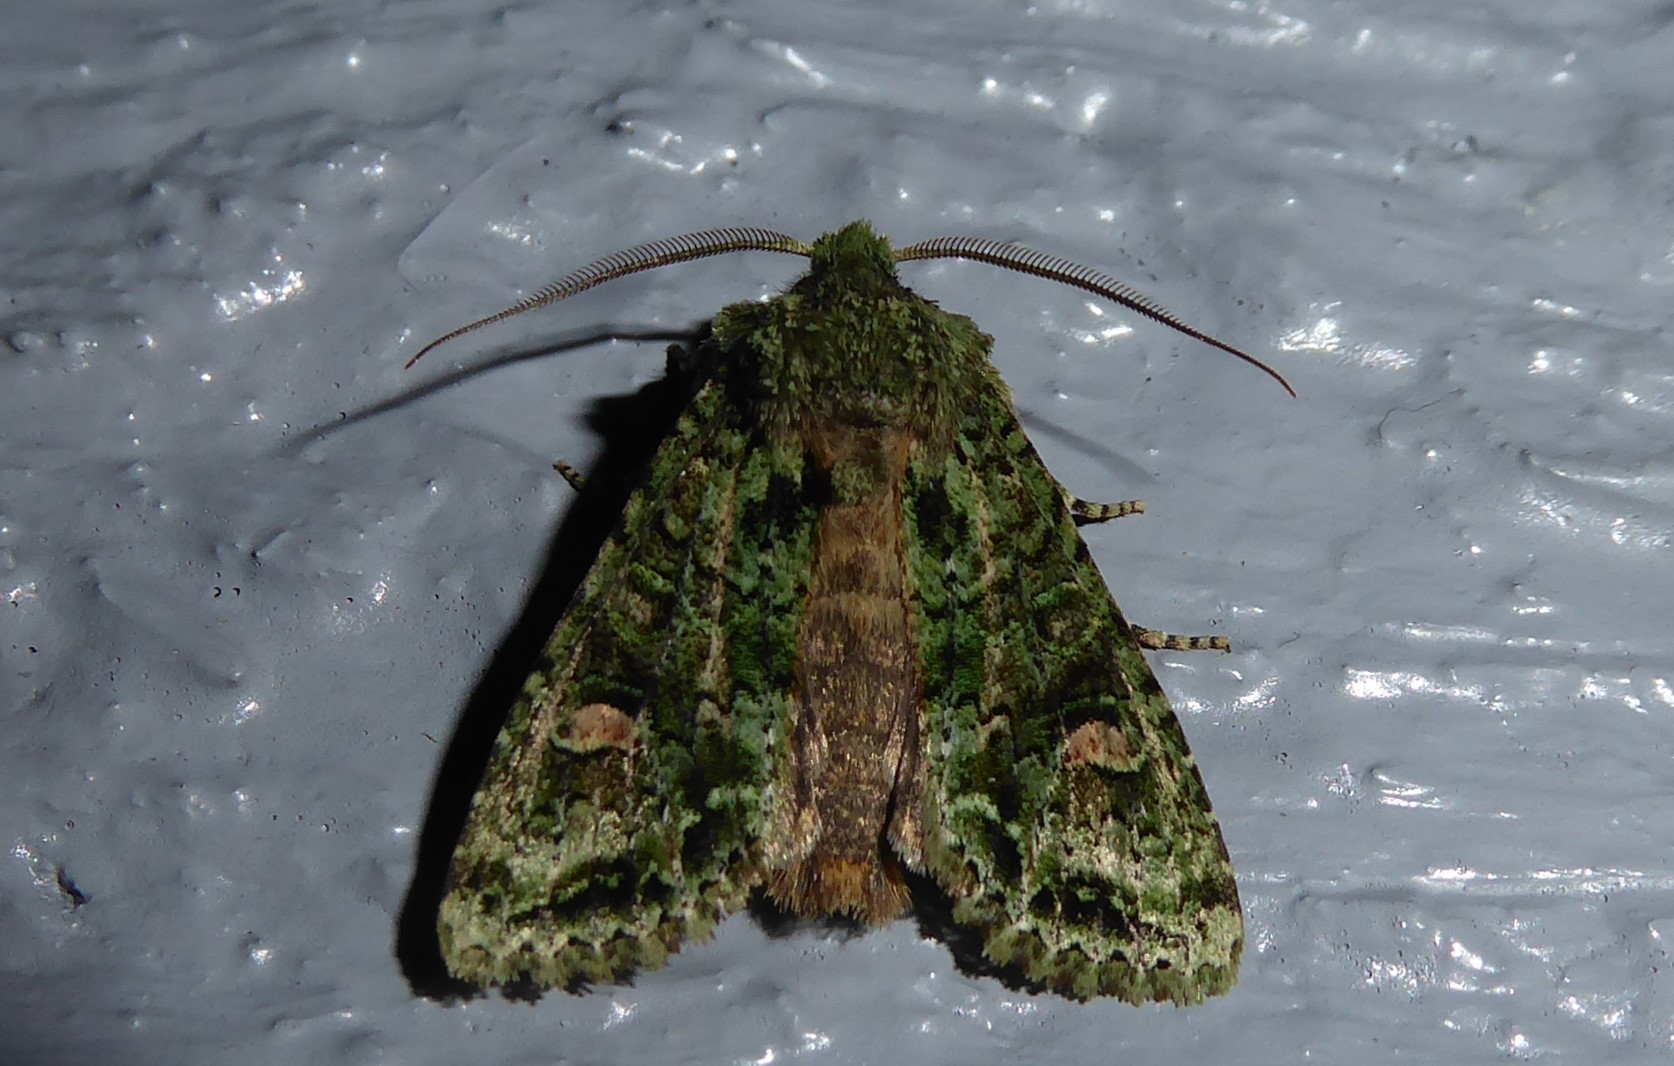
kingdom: Animalia
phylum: Arthropoda
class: Insecta
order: Lepidoptera
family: Noctuidae
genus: Ichneutica
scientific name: Ichneutica
